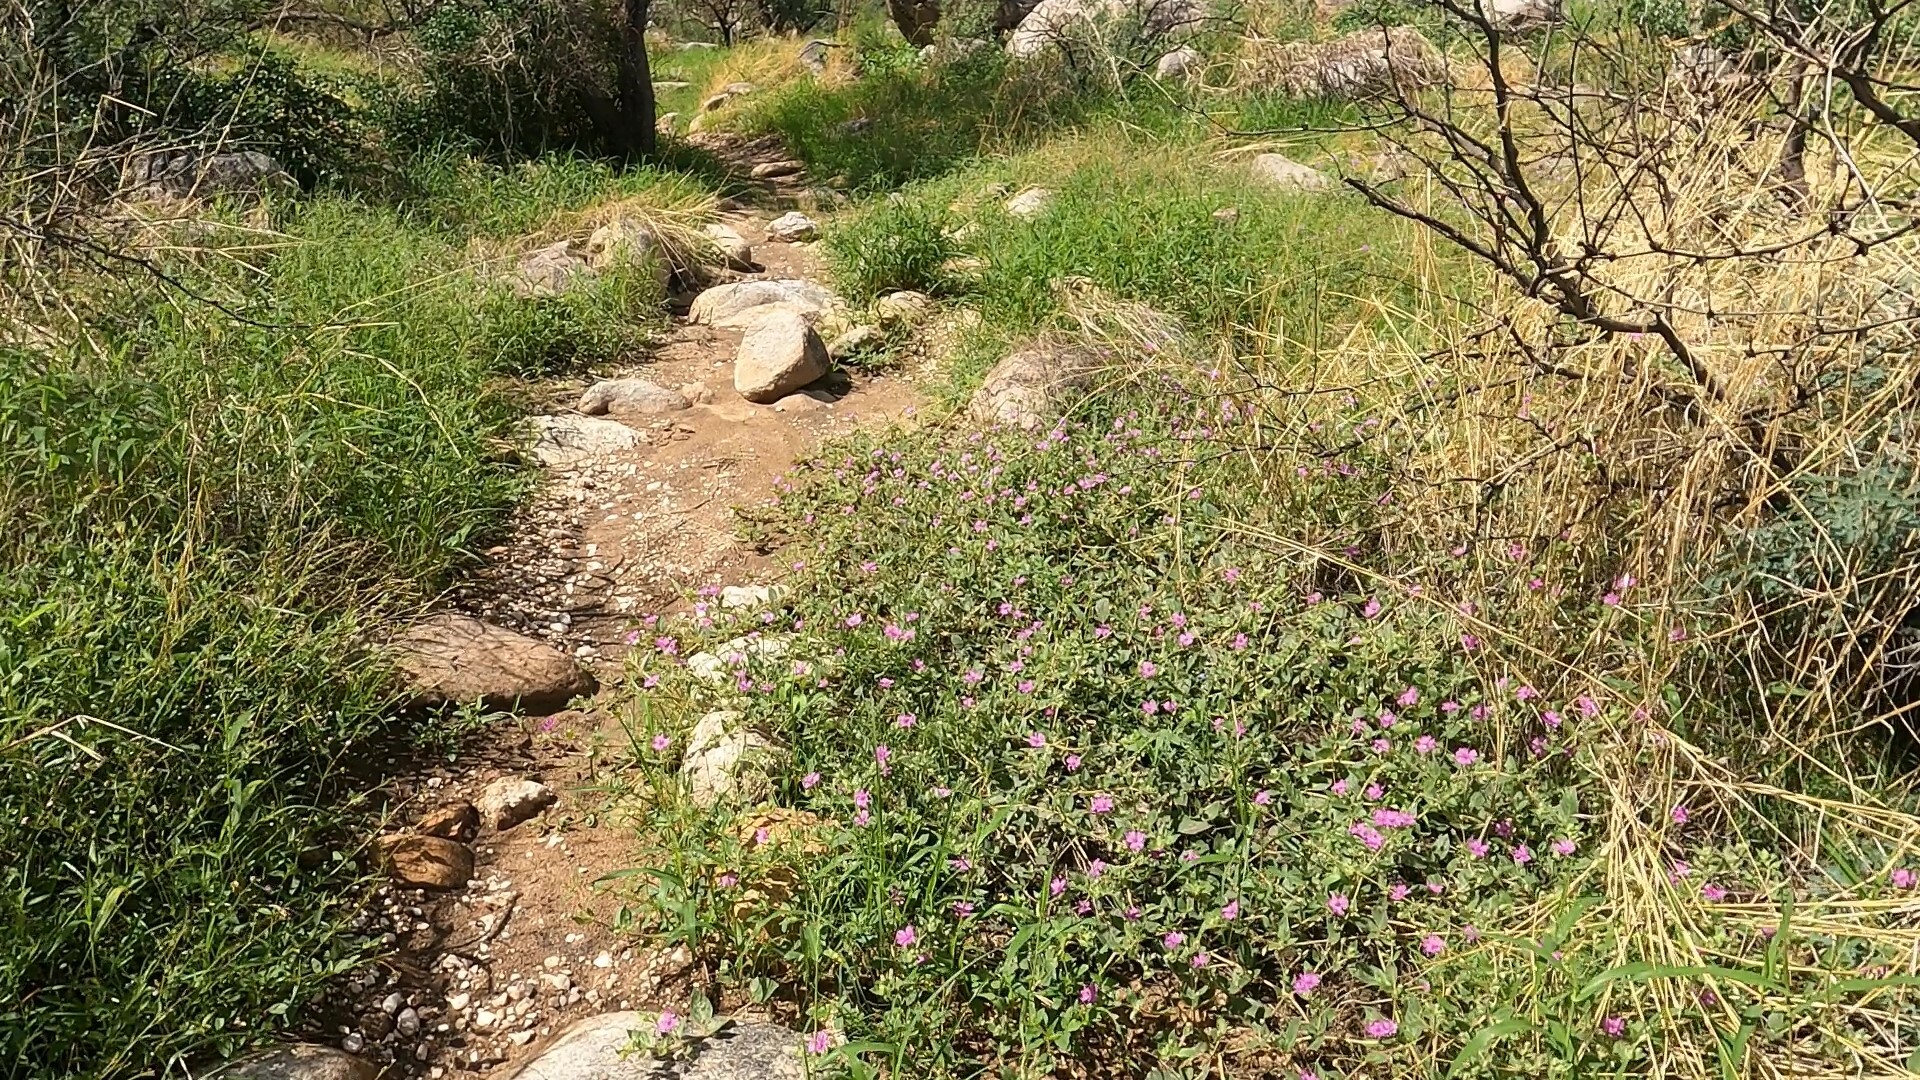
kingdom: Plantae
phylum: Tracheophyta
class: Magnoliopsida
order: Caryophyllales
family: Nyctaginaceae
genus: Allionia
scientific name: Allionia incarnata
